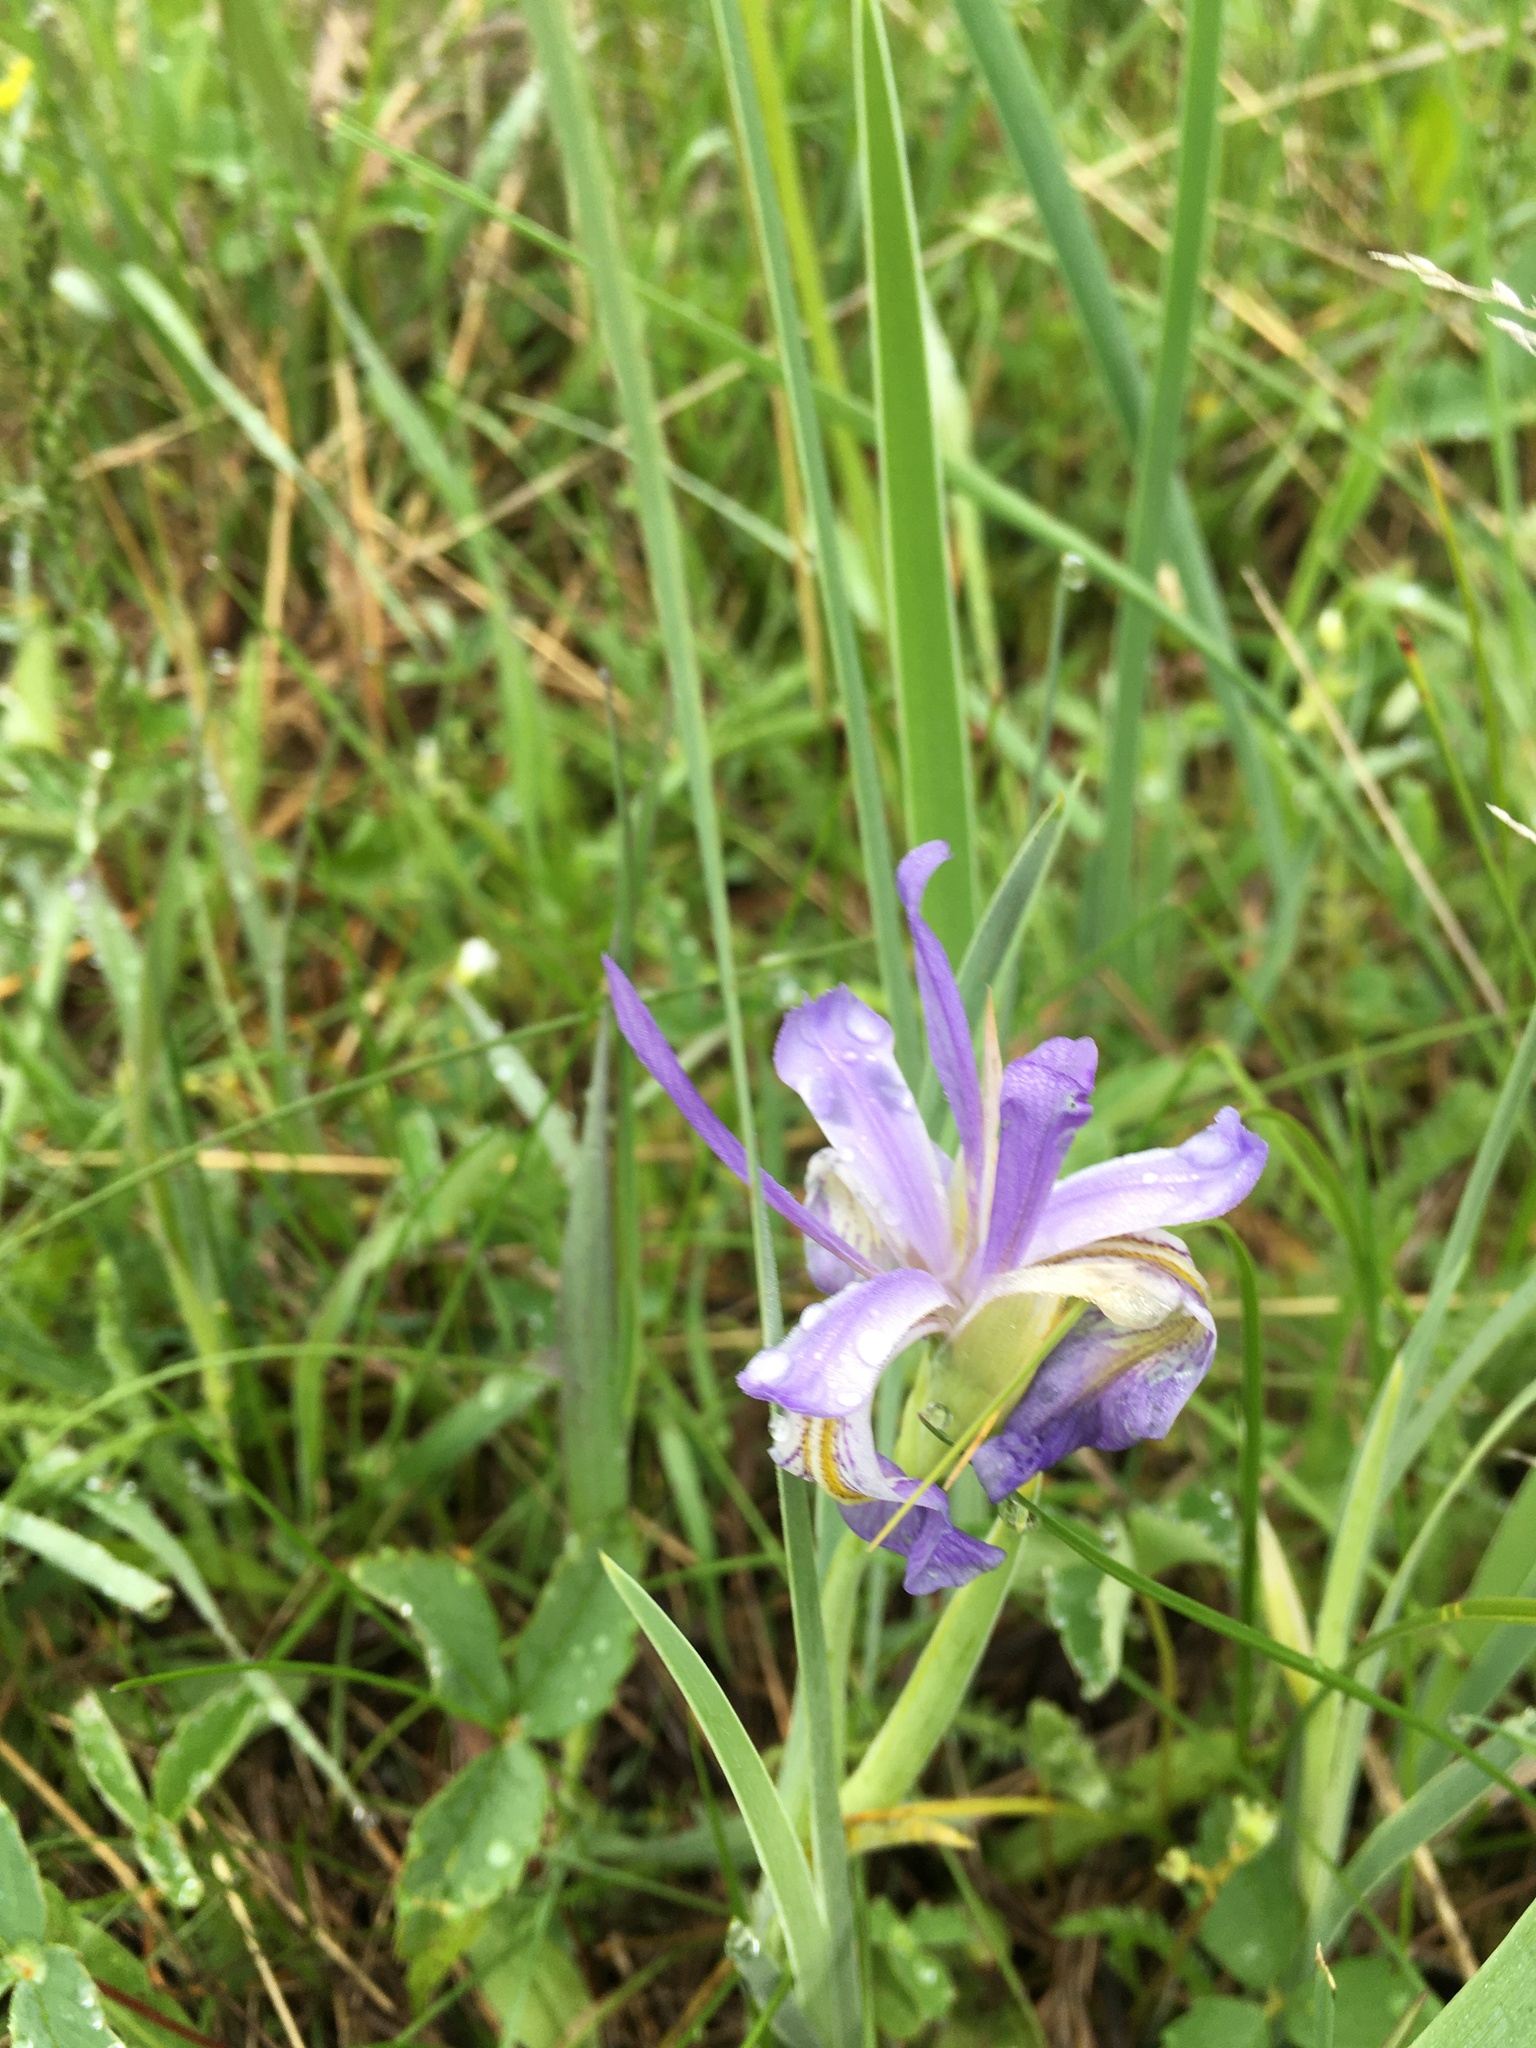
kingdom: Plantae
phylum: Tracheophyta
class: Liliopsida
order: Asparagales
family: Iridaceae
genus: Iris
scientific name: Iris missouriensis
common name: Rocky mountain iris
